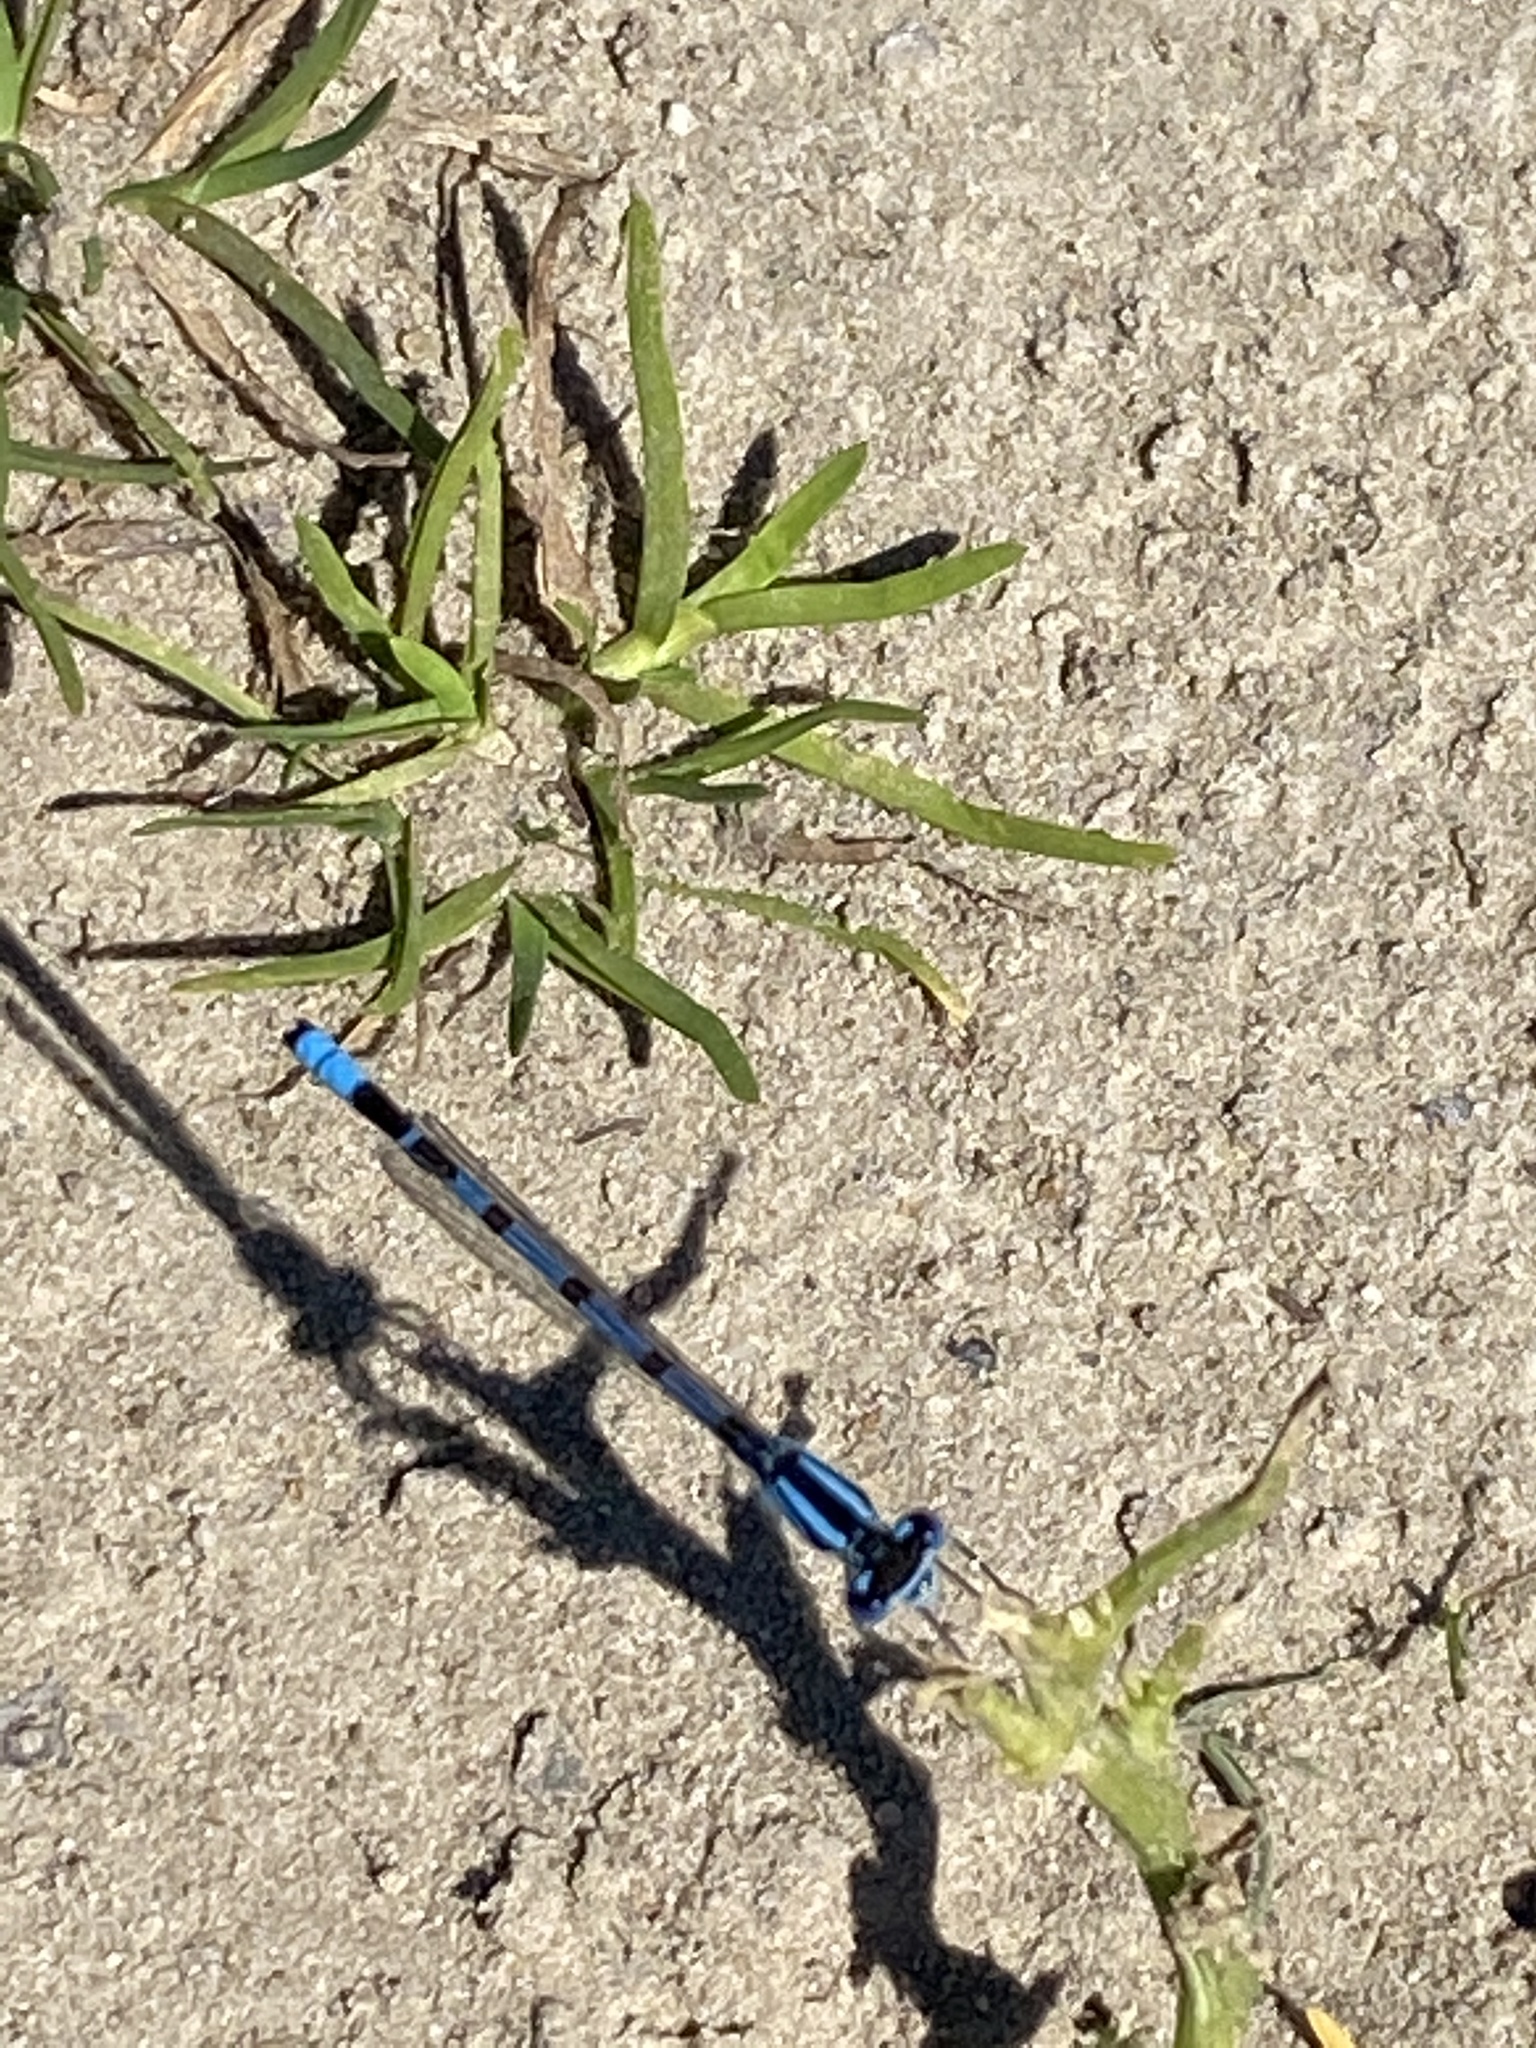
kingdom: Animalia
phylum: Arthropoda
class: Insecta
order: Odonata
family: Coenagrionidae
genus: Enallagma
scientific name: Enallagma cyathigerum
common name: Common blue damselfly
